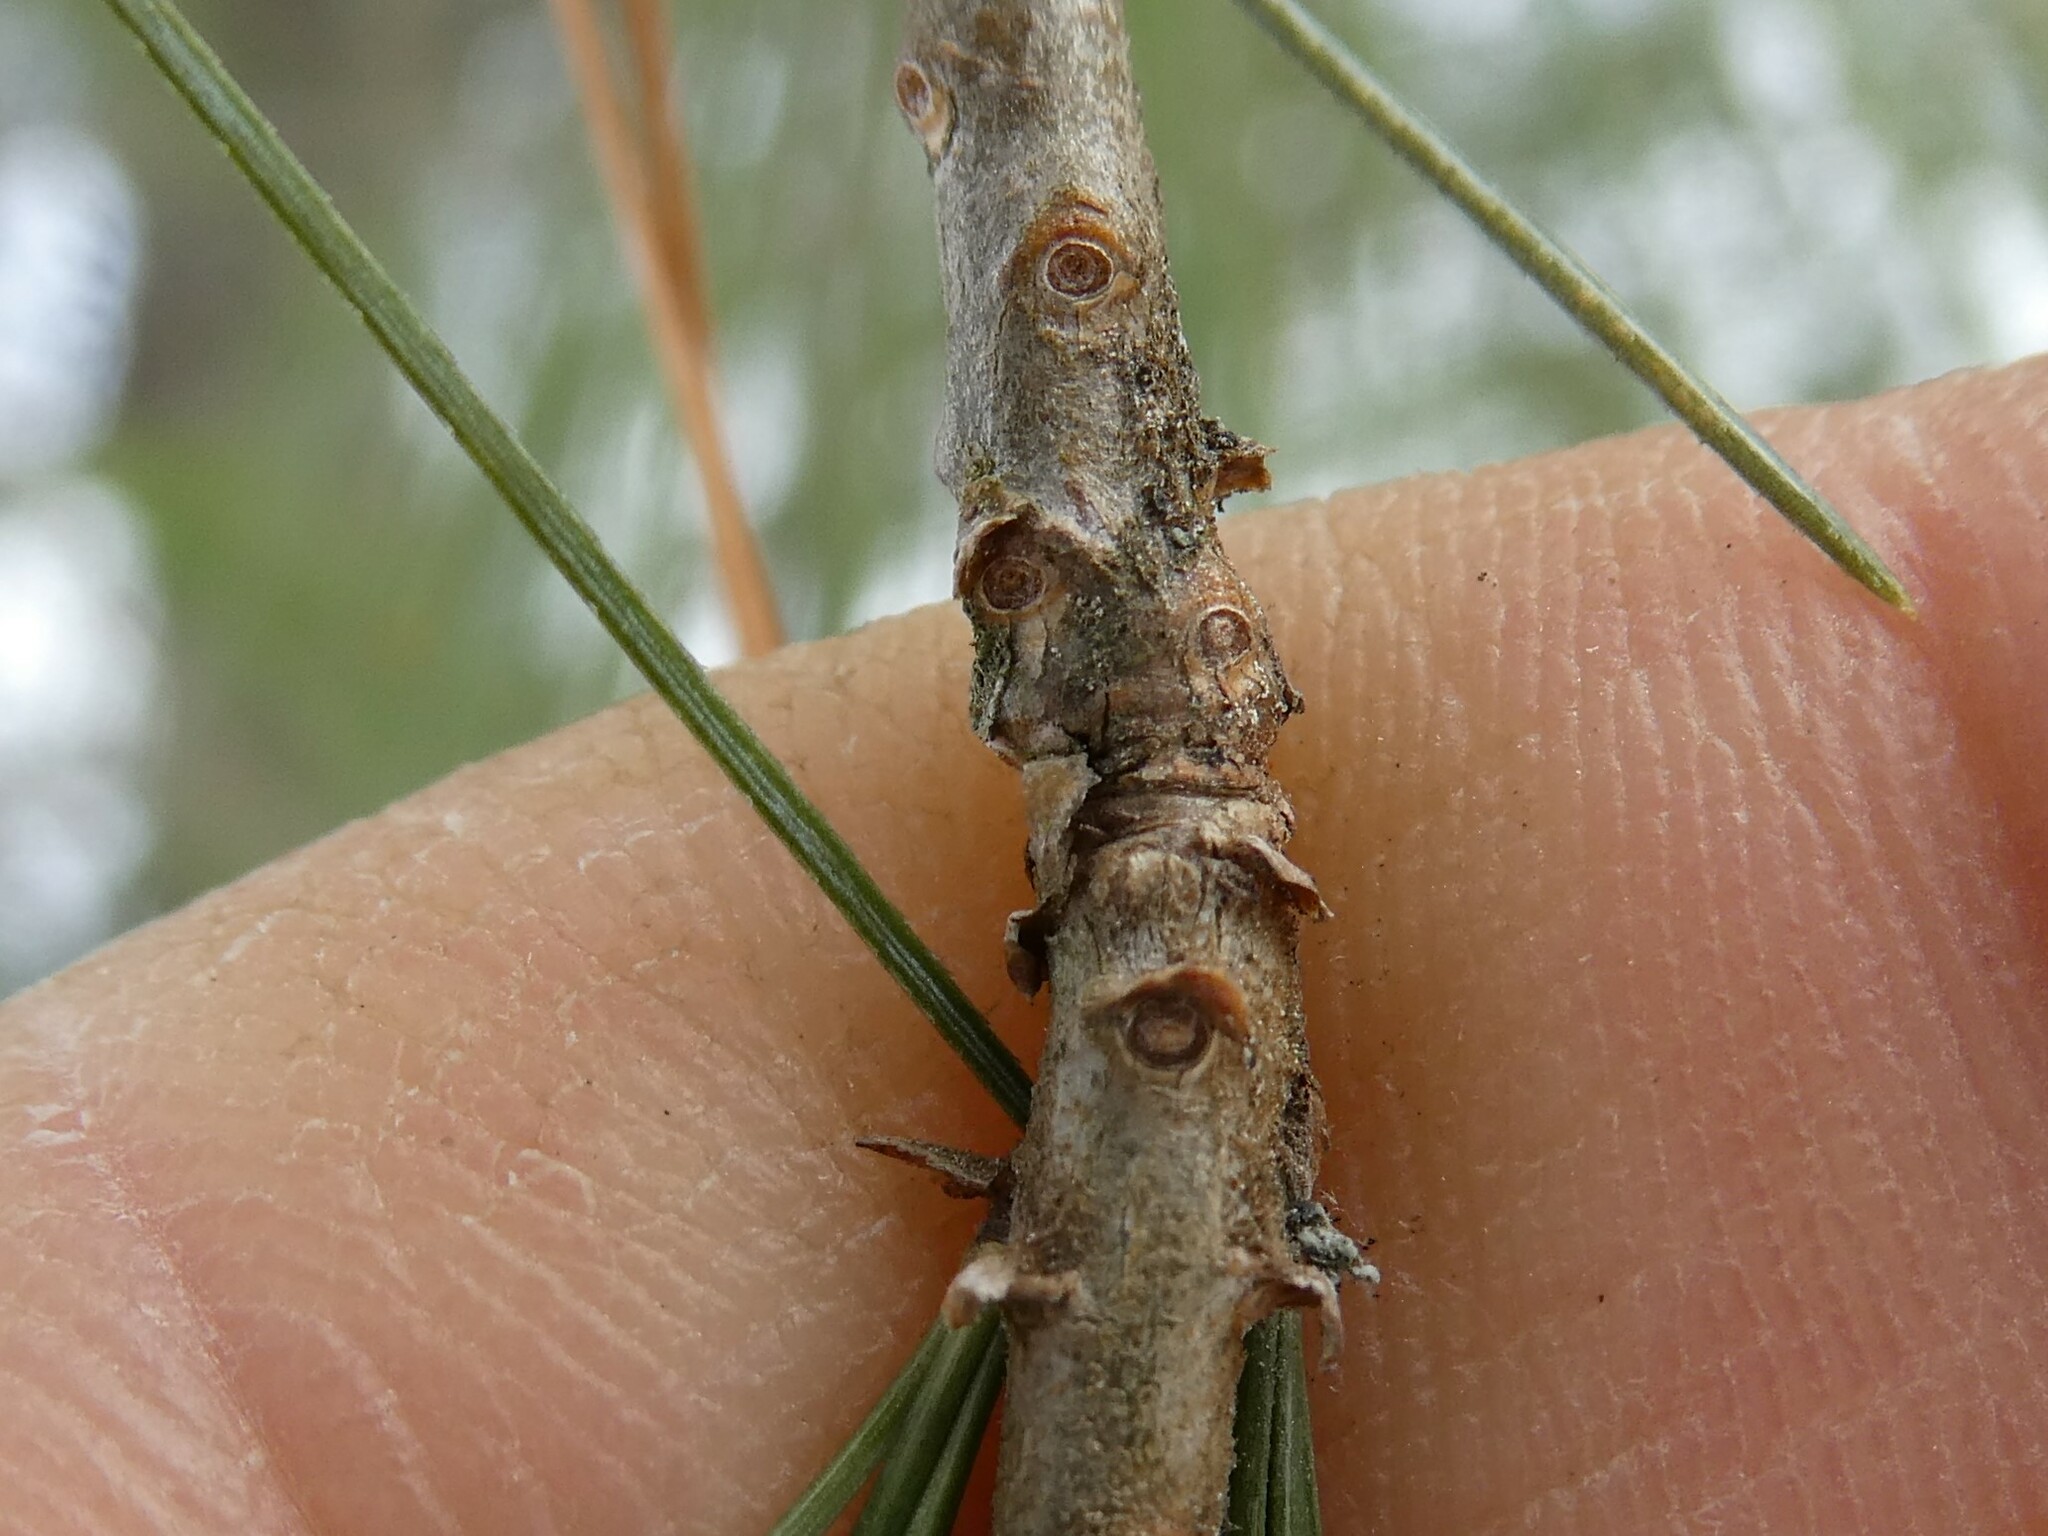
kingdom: Plantae
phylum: Tracheophyta
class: Pinopsida
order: Pinales
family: Pinaceae
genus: Pinus
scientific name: Pinus strobus
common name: Weymouth pine
